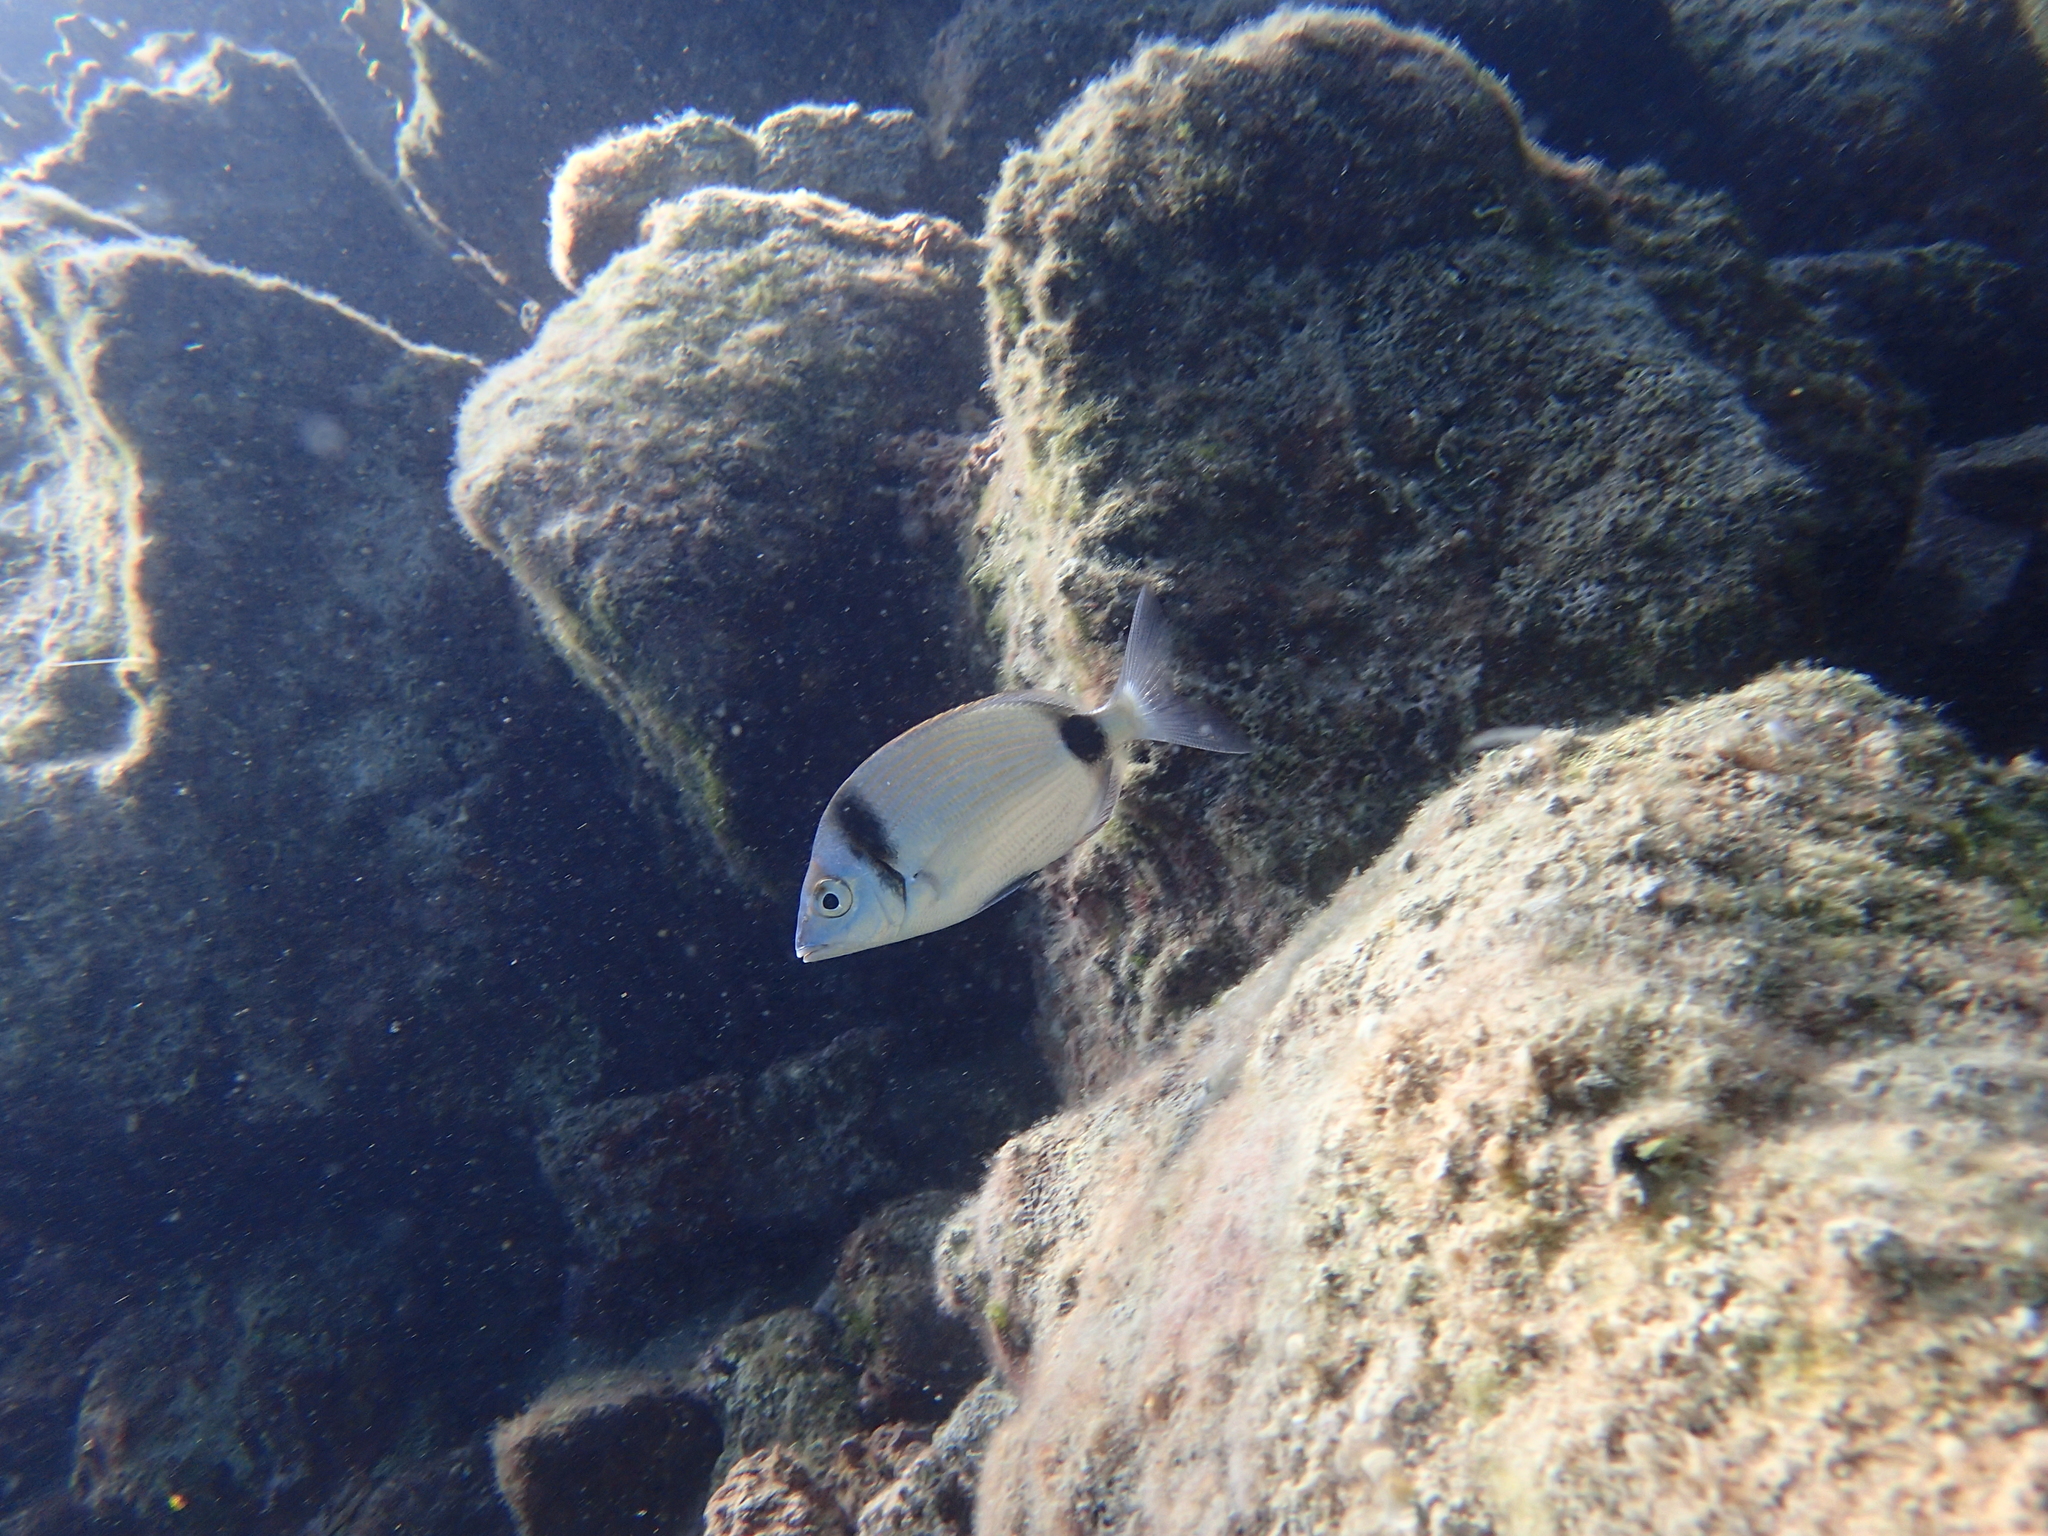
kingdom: Animalia
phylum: Chordata
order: Perciformes
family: Sparidae
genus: Diplodus
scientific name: Diplodus vulgaris
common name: Common two-banded seabream
